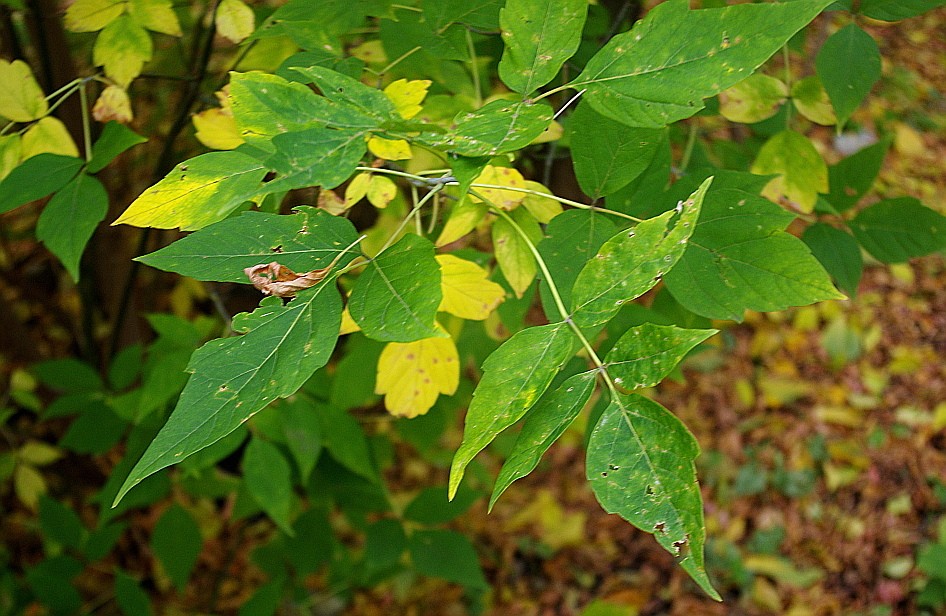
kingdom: Plantae
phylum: Tracheophyta
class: Magnoliopsida
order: Sapindales
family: Sapindaceae
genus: Acer
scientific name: Acer negundo
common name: Ashleaf maple
